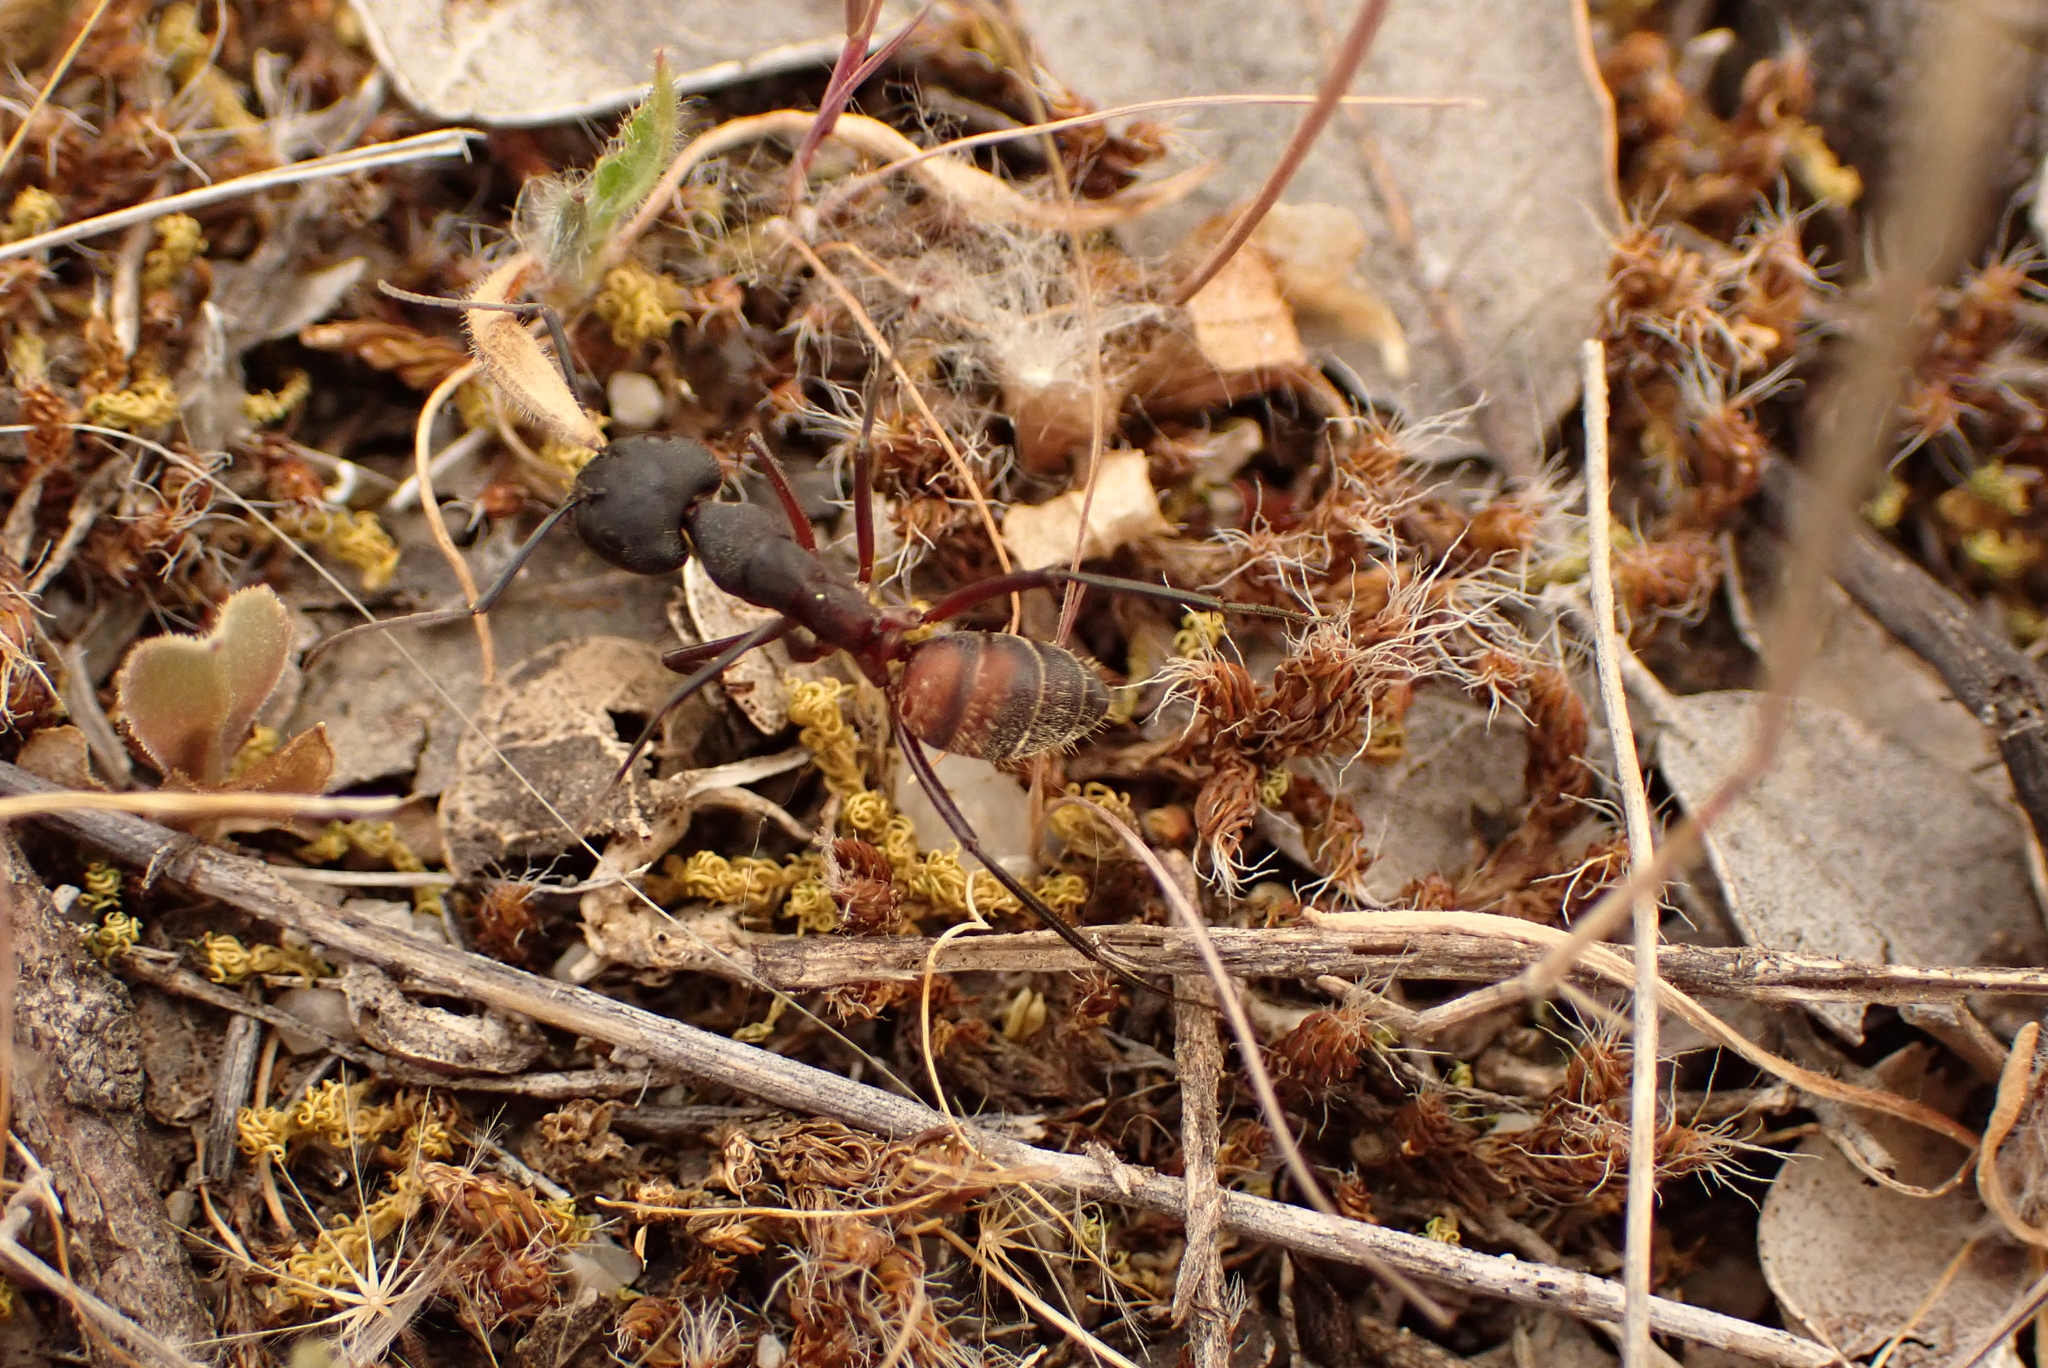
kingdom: Animalia
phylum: Arthropoda
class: Insecta
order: Hymenoptera
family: Formicidae
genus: Camponotus
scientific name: Camponotus cruentatus
